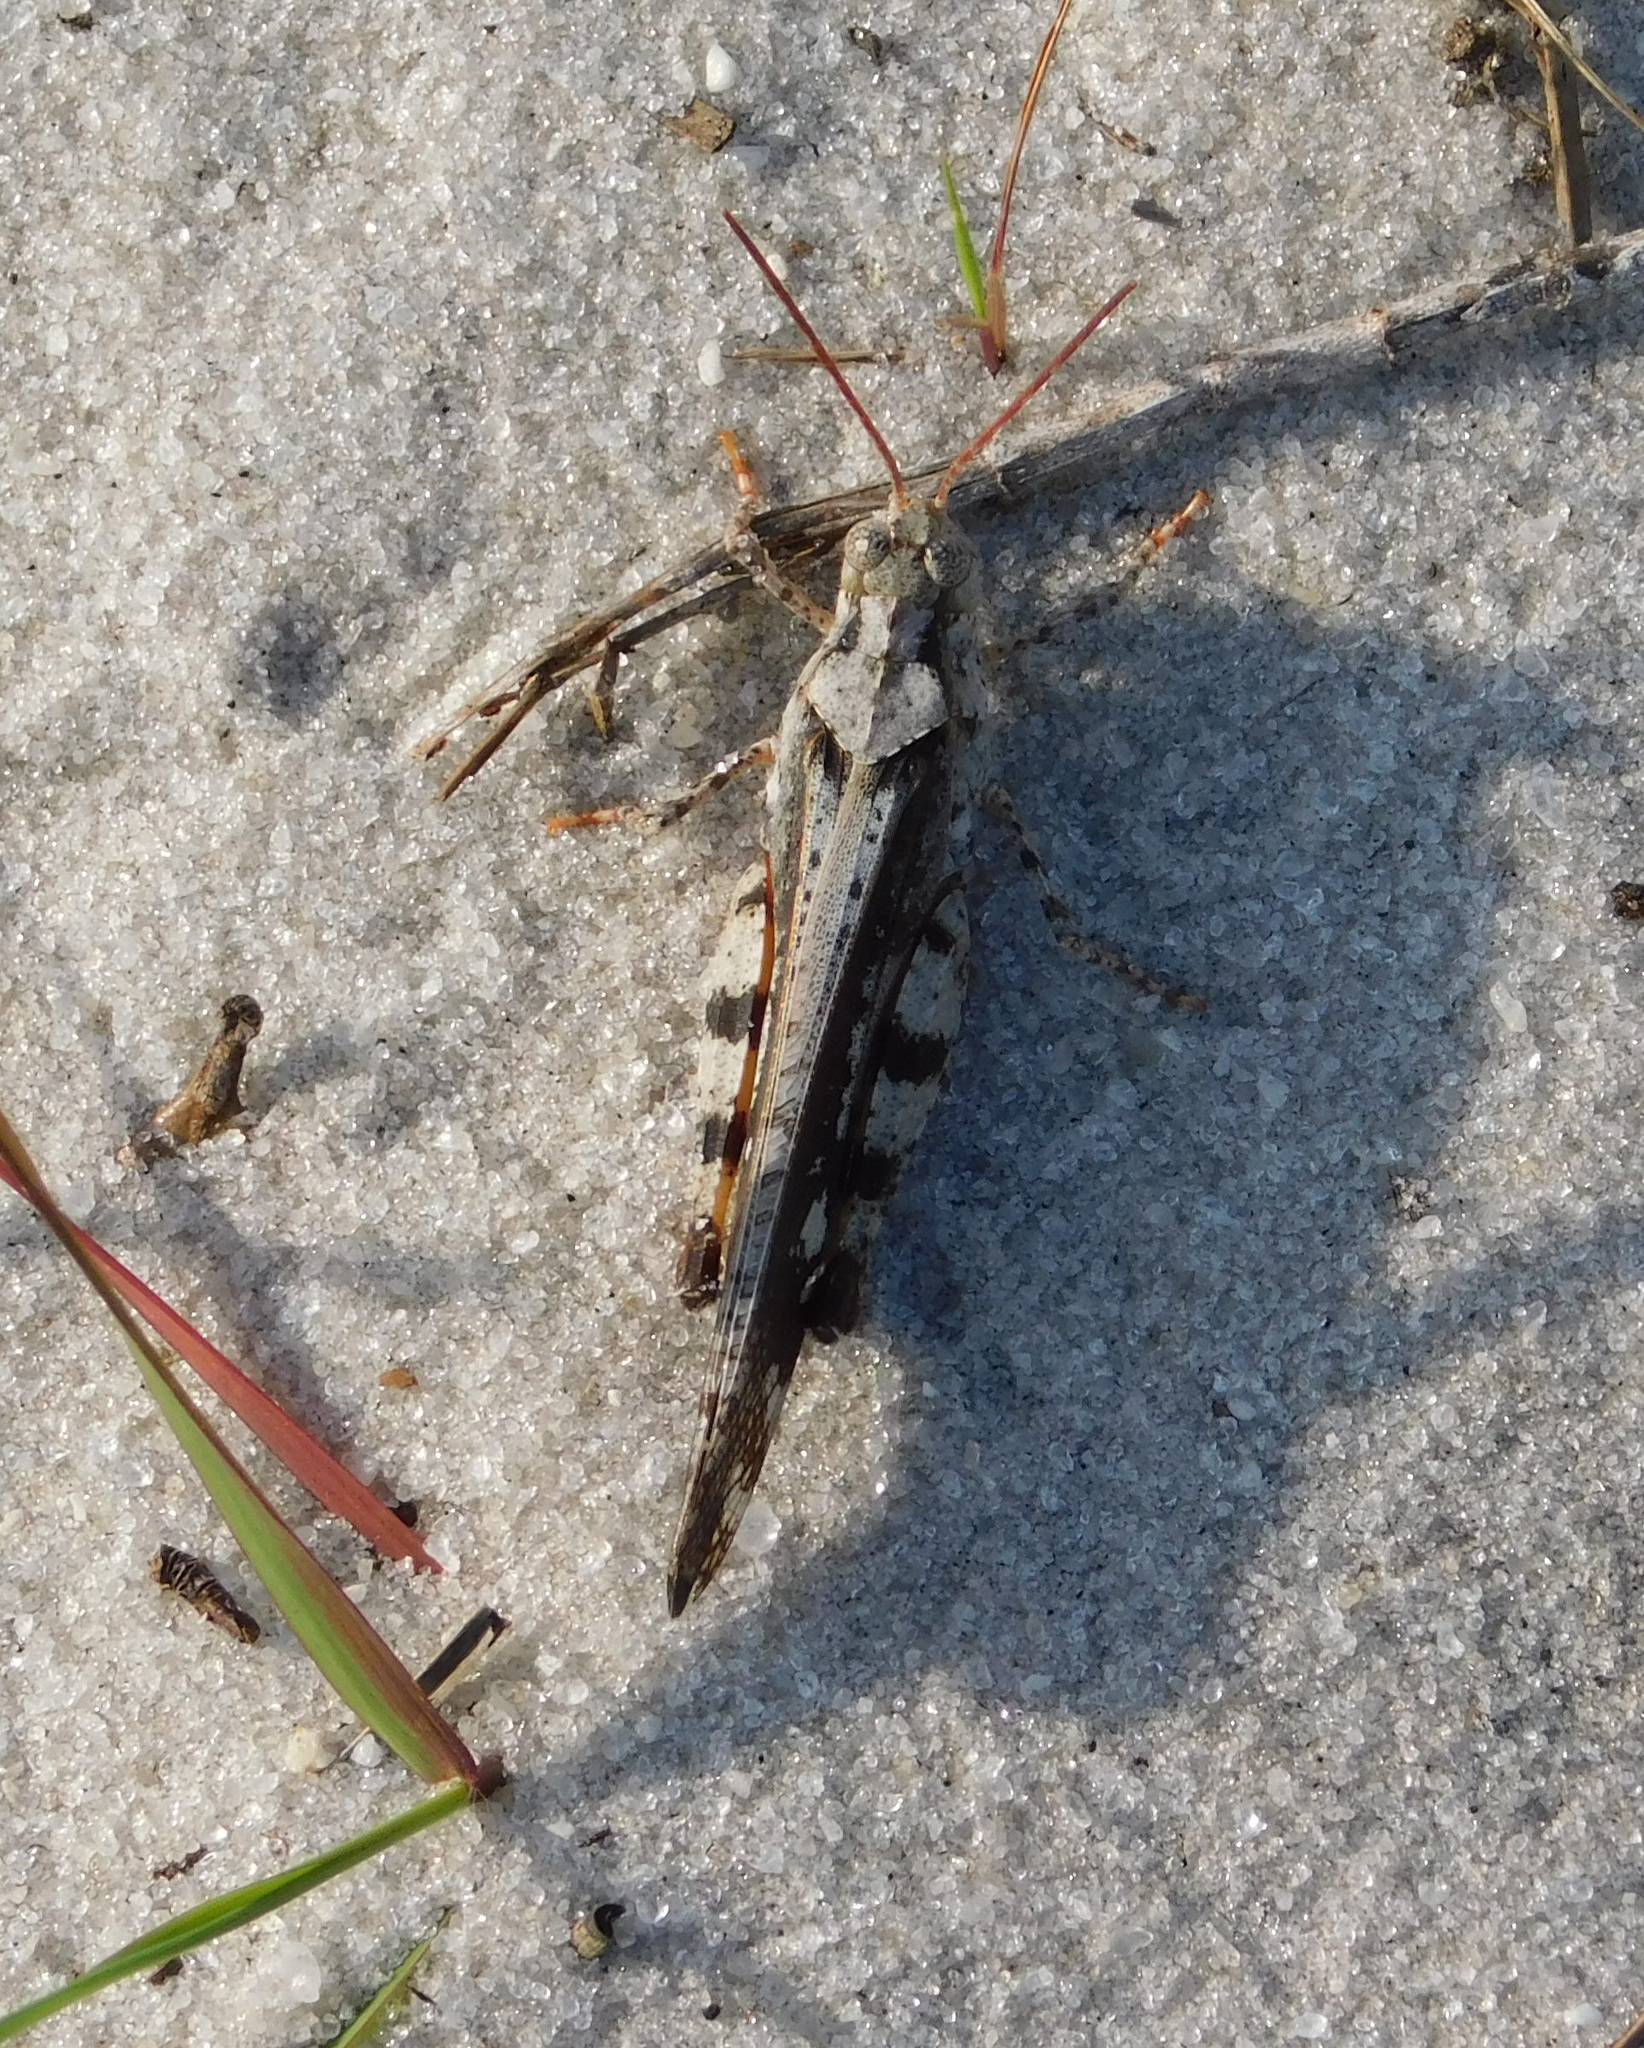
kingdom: Animalia
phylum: Arthropoda
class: Insecta
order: Orthoptera
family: Acrididae
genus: Spharagemon
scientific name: Spharagemon marmoratum
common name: Marbled grasshopper
